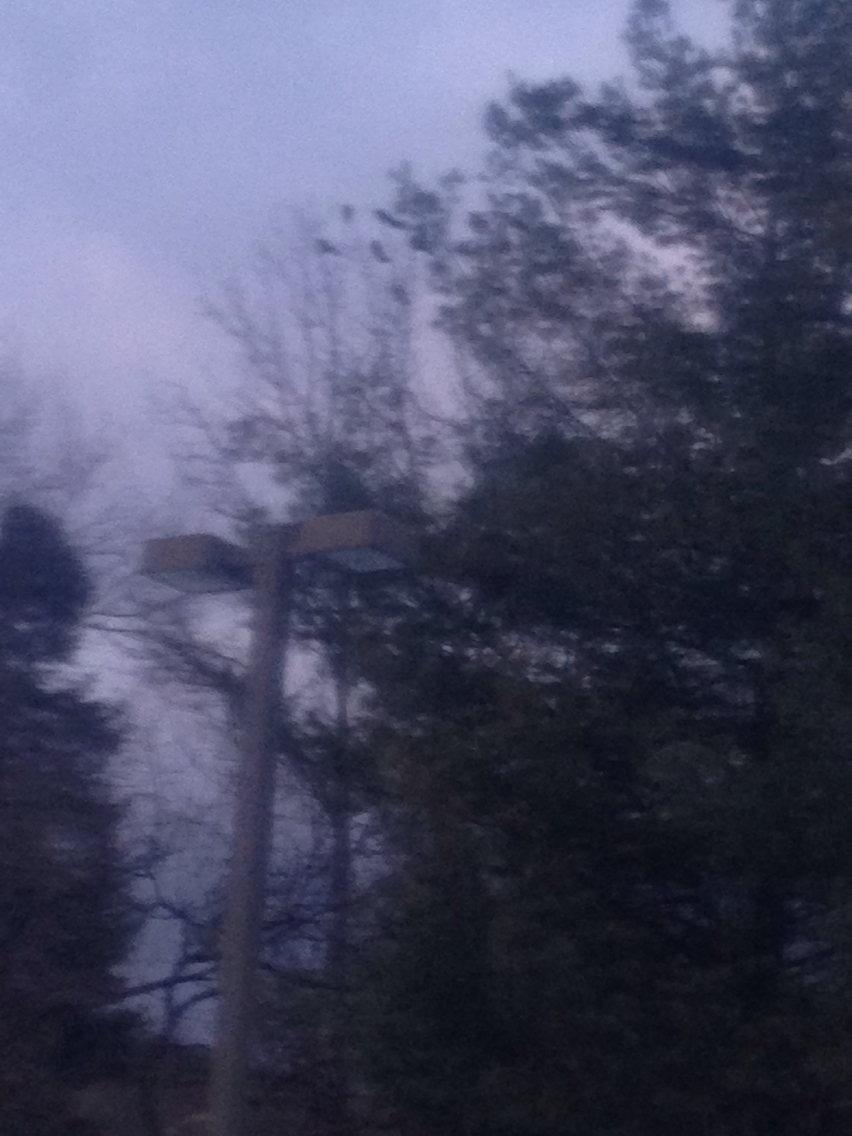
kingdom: Animalia
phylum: Chordata
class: Aves
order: Passeriformes
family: Corvidae
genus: Corvus
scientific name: Corvus brachyrhynchos
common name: American crow
